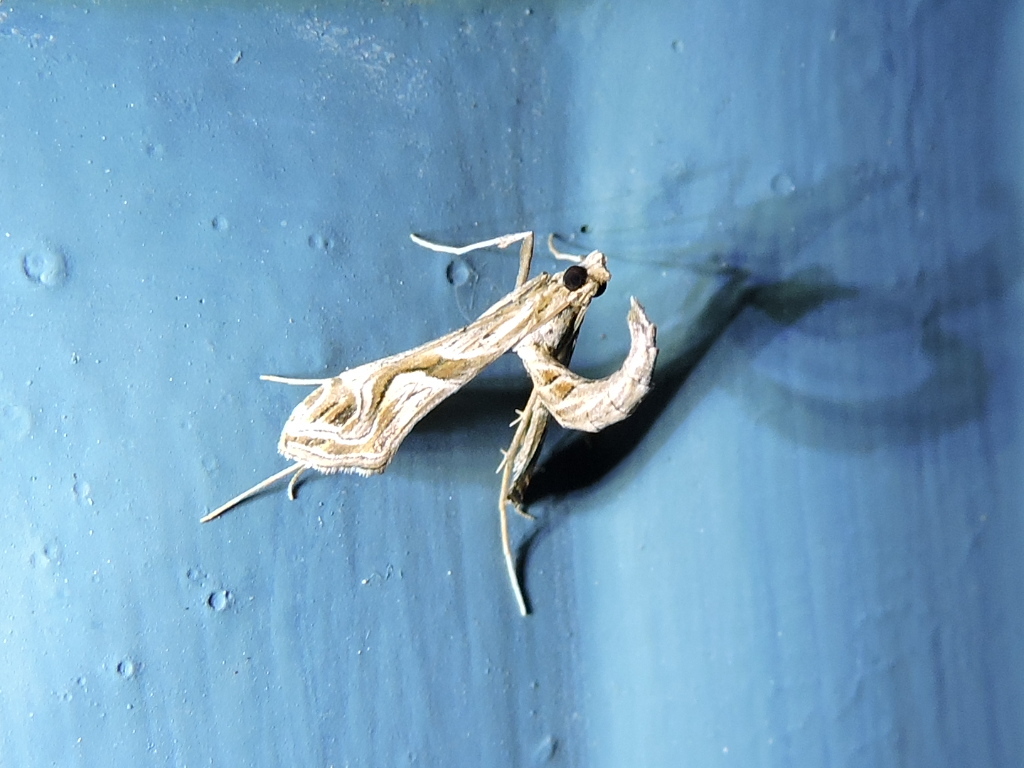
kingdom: Animalia
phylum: Arthropoda
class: Insecta
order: Lepidoptera
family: Crambidae
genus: Lineodes
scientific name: Lineodes integra
